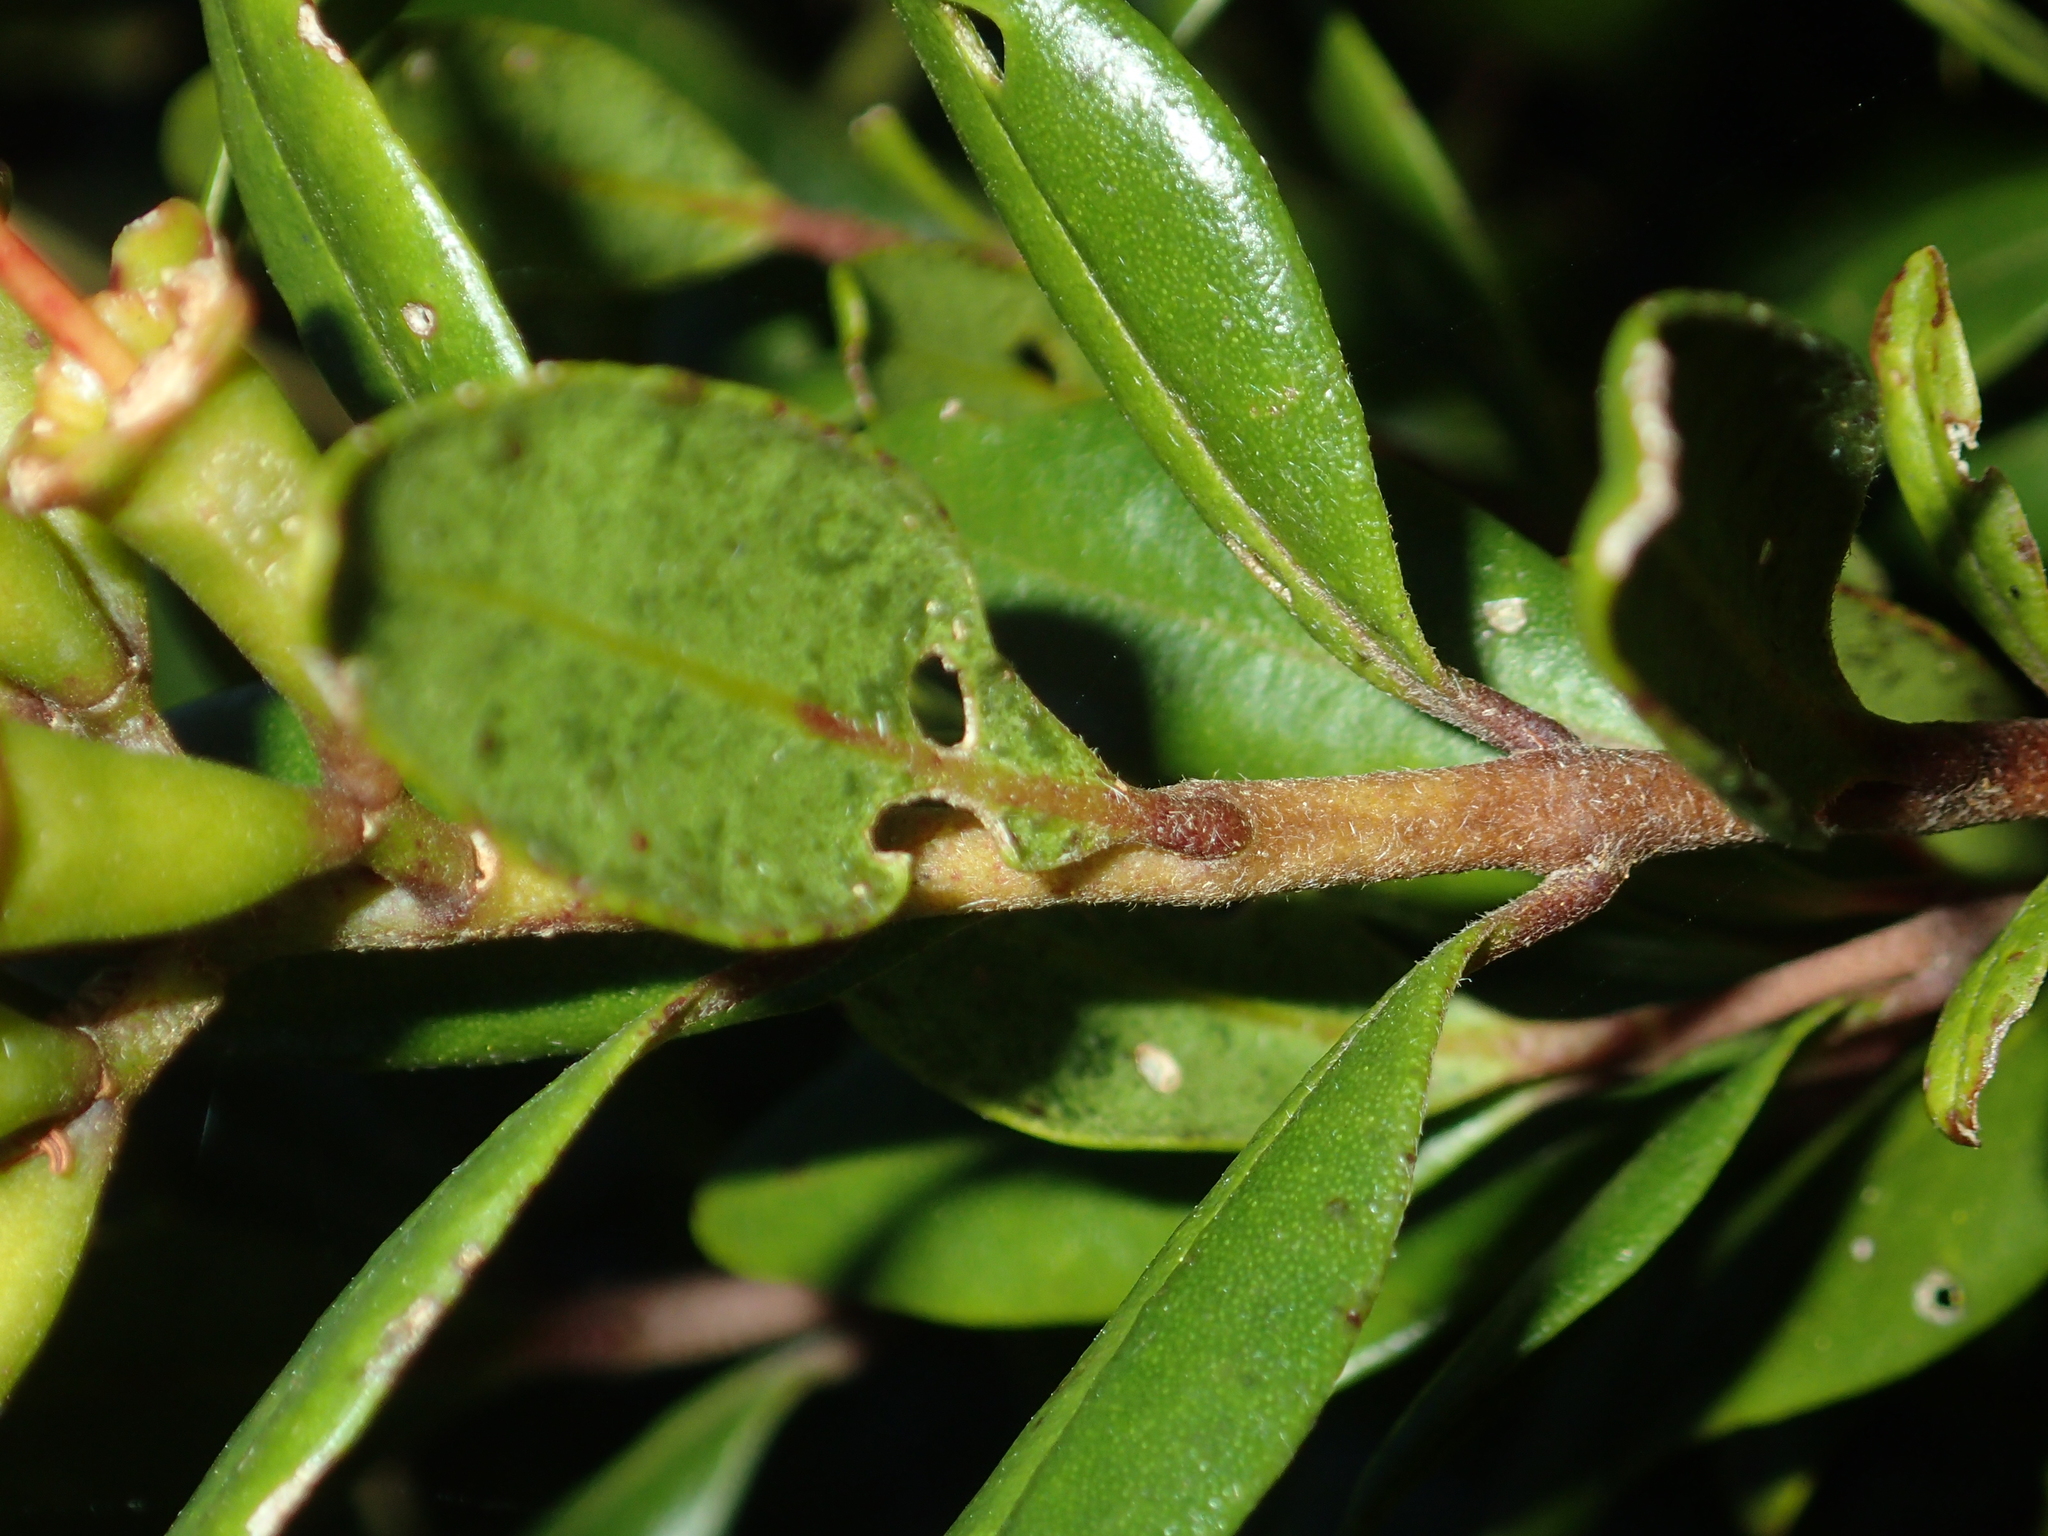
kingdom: Plantae
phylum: Tracheophyta
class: Magnoliopsida
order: Myrtales
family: Myrtaceae
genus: Metrosideros
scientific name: Metrosideros fulgens
